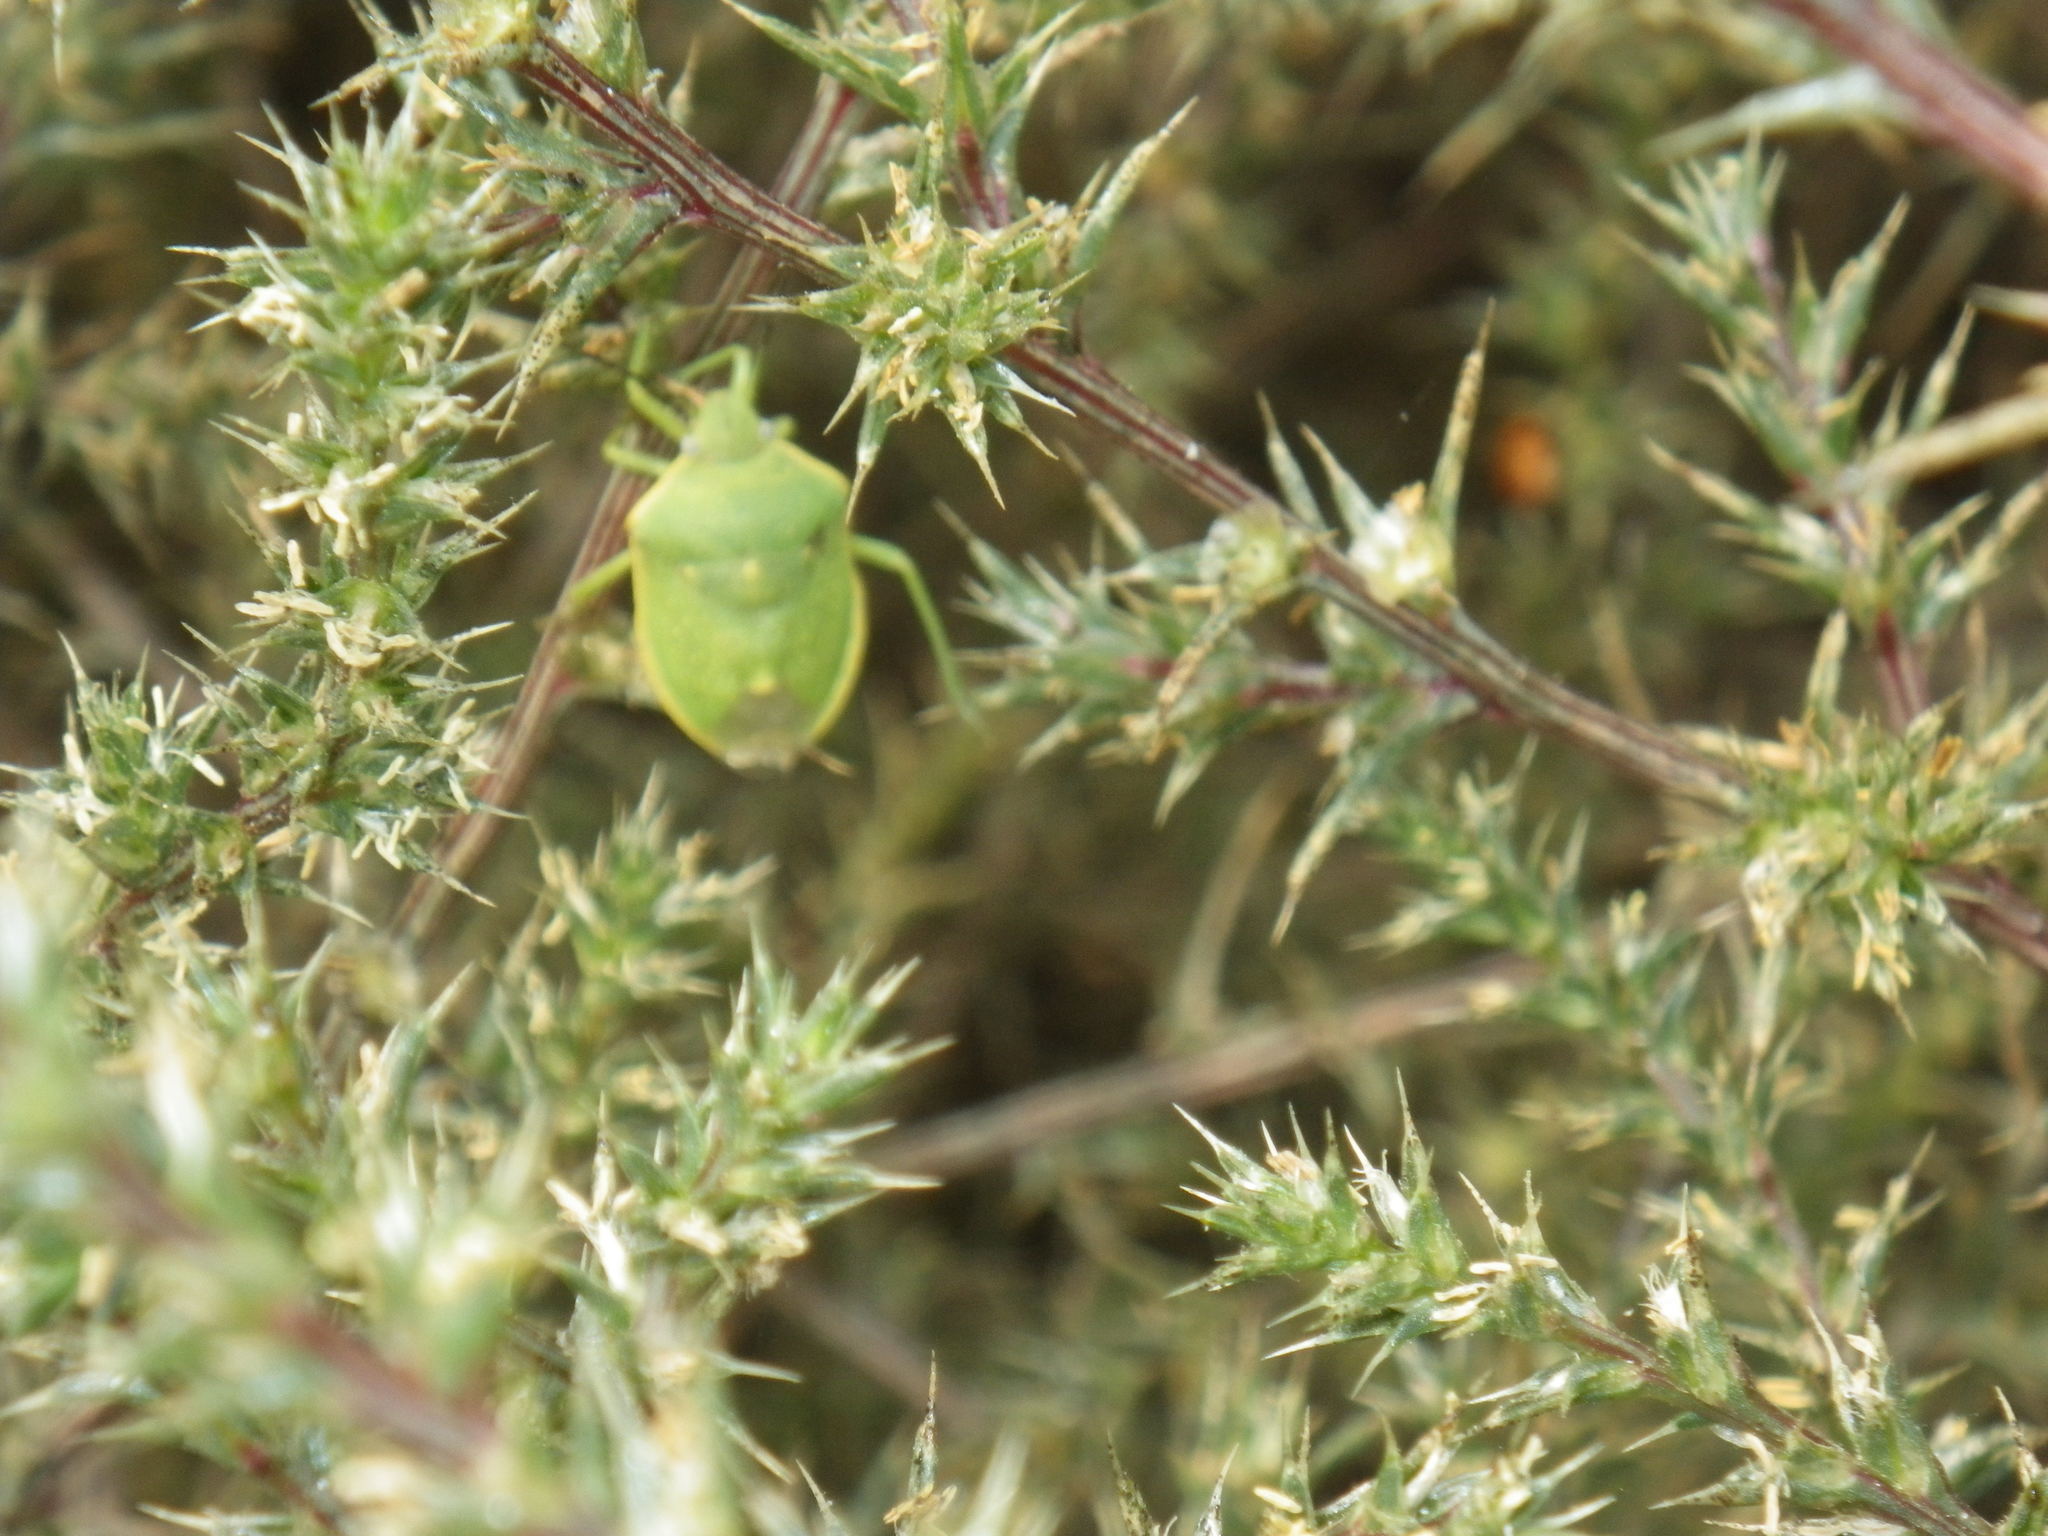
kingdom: Animalia
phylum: Arthropoda
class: Insecta
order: Hemiptera
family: Pentatomidae
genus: Chlorochroa
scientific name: Chlorochroa sayi
